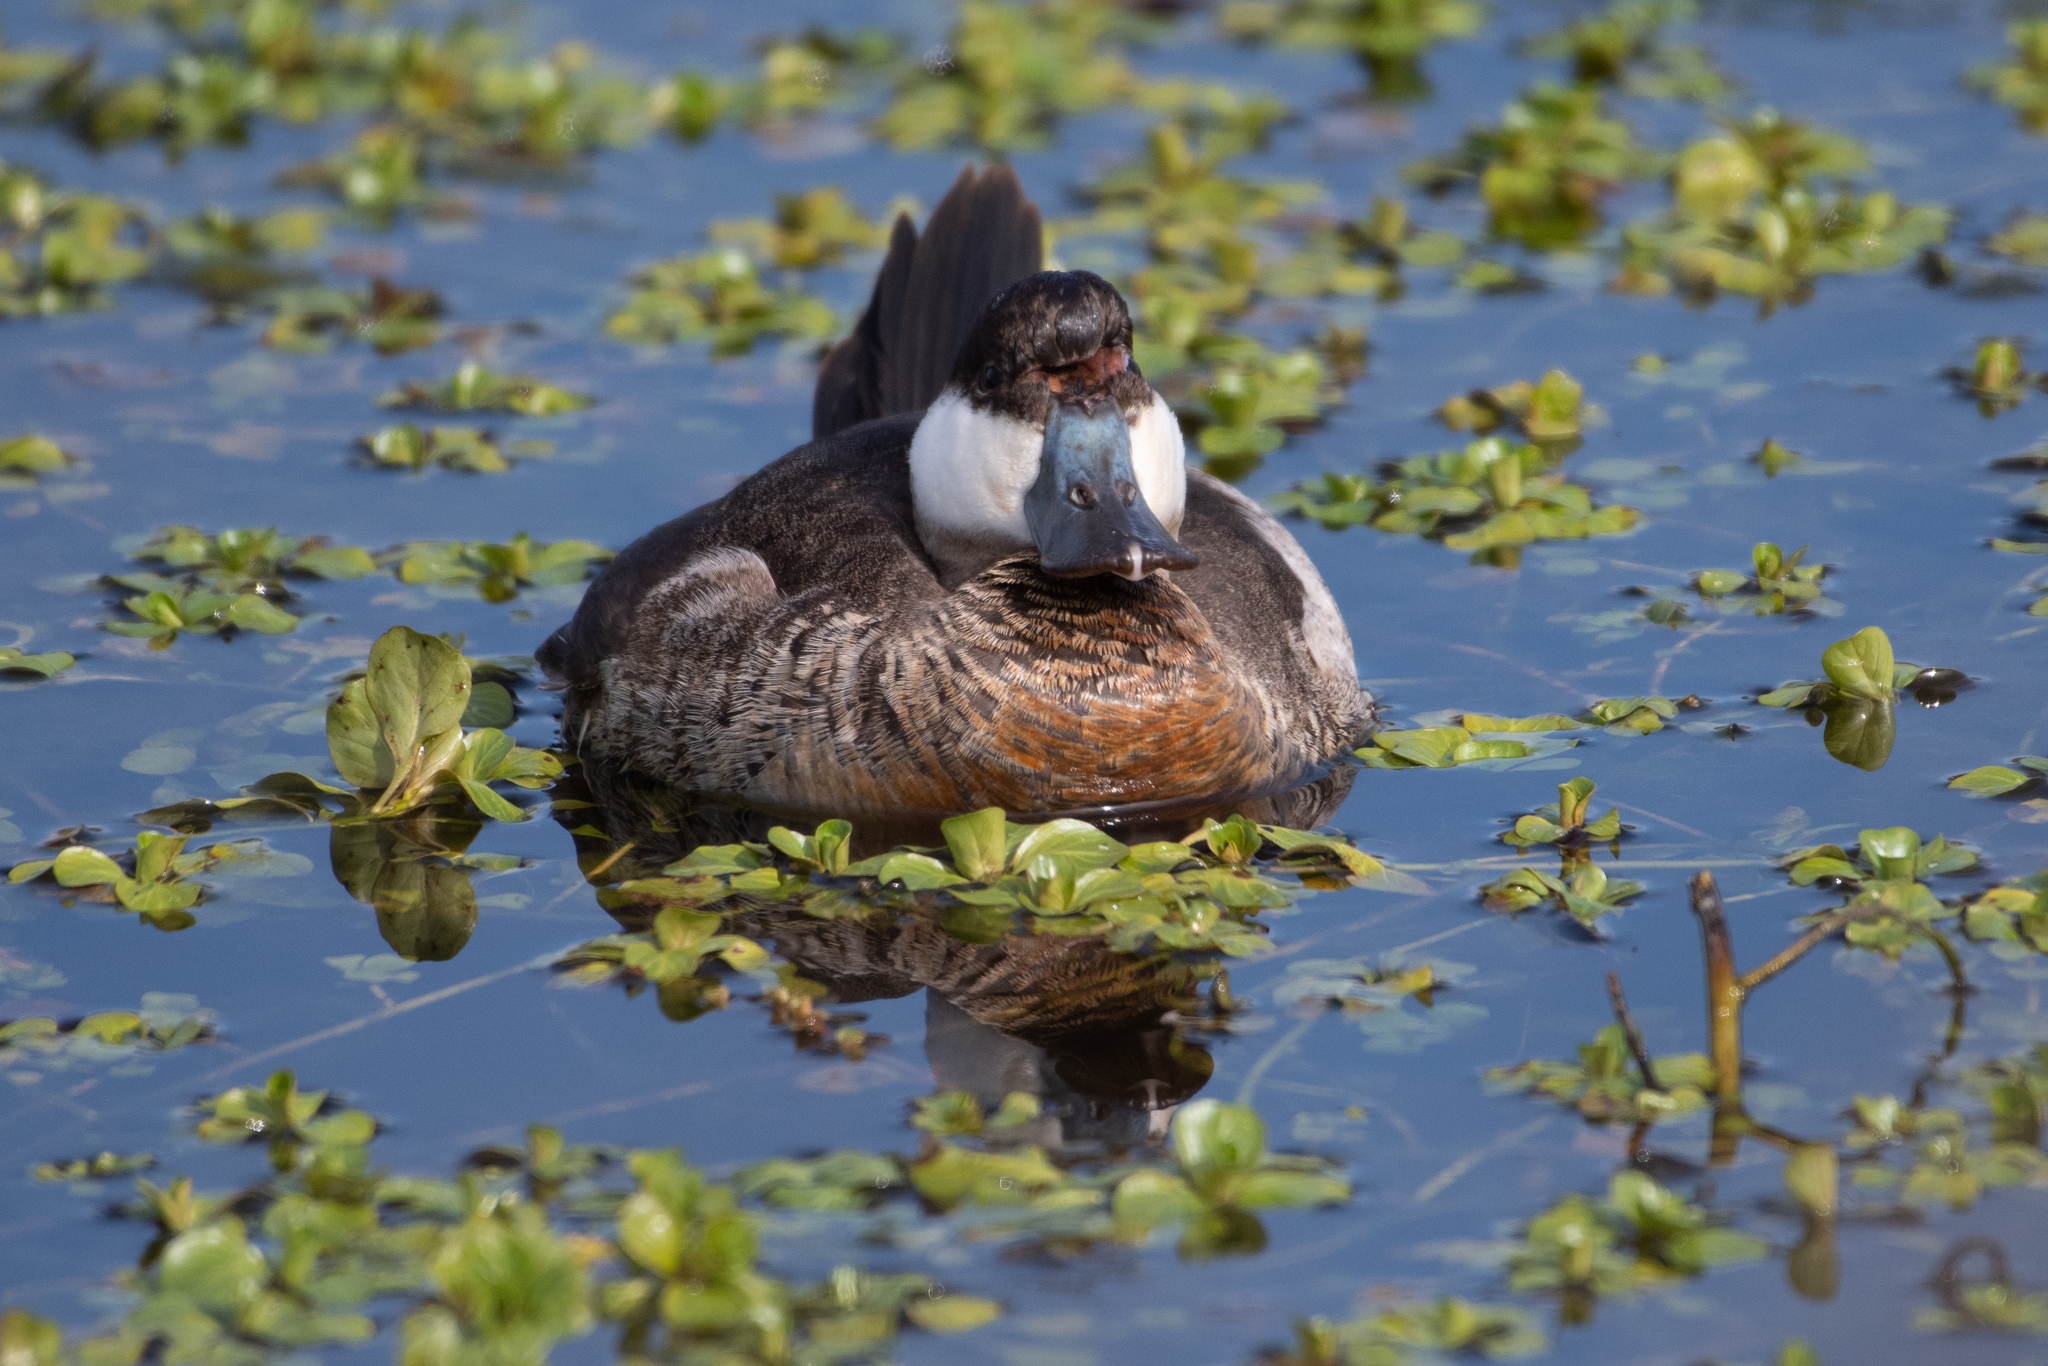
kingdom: Animalia
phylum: Chordata
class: Aves
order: Anseriformes
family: Anatidae
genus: Oxyura
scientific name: Oxyura jamaicensis
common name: Ruddy duck
